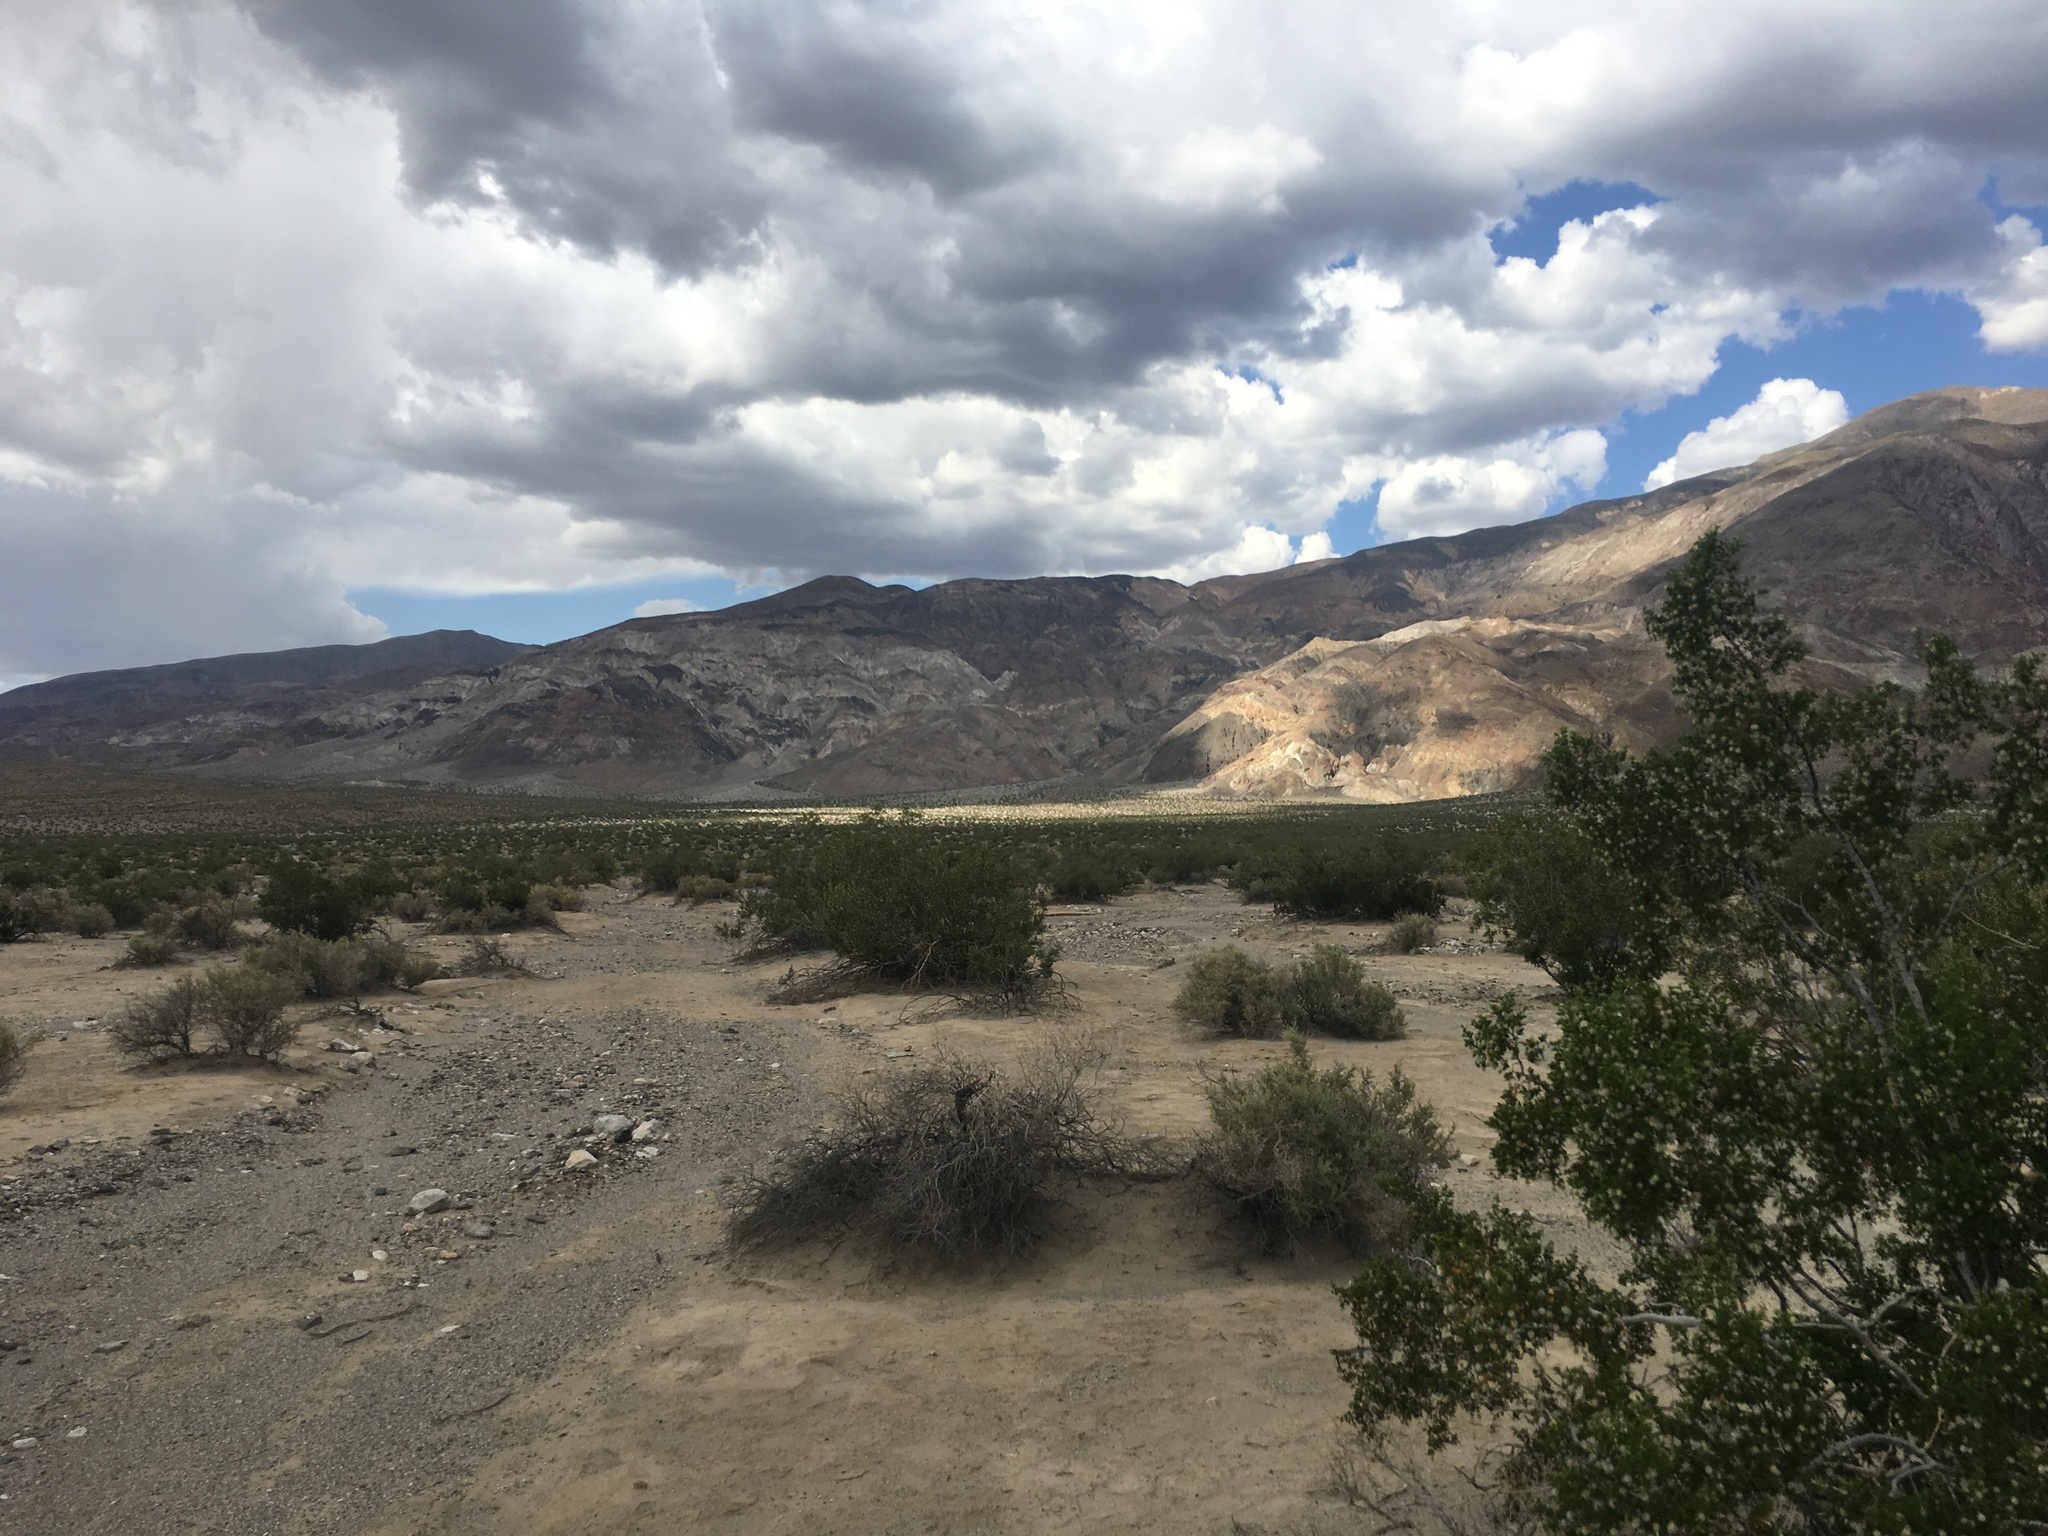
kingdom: Plantae
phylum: Tracheophyta
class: Magnoliopsida
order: Zygophyllales
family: Zygophyllaceae
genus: Larrea
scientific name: Larrea tridentata
